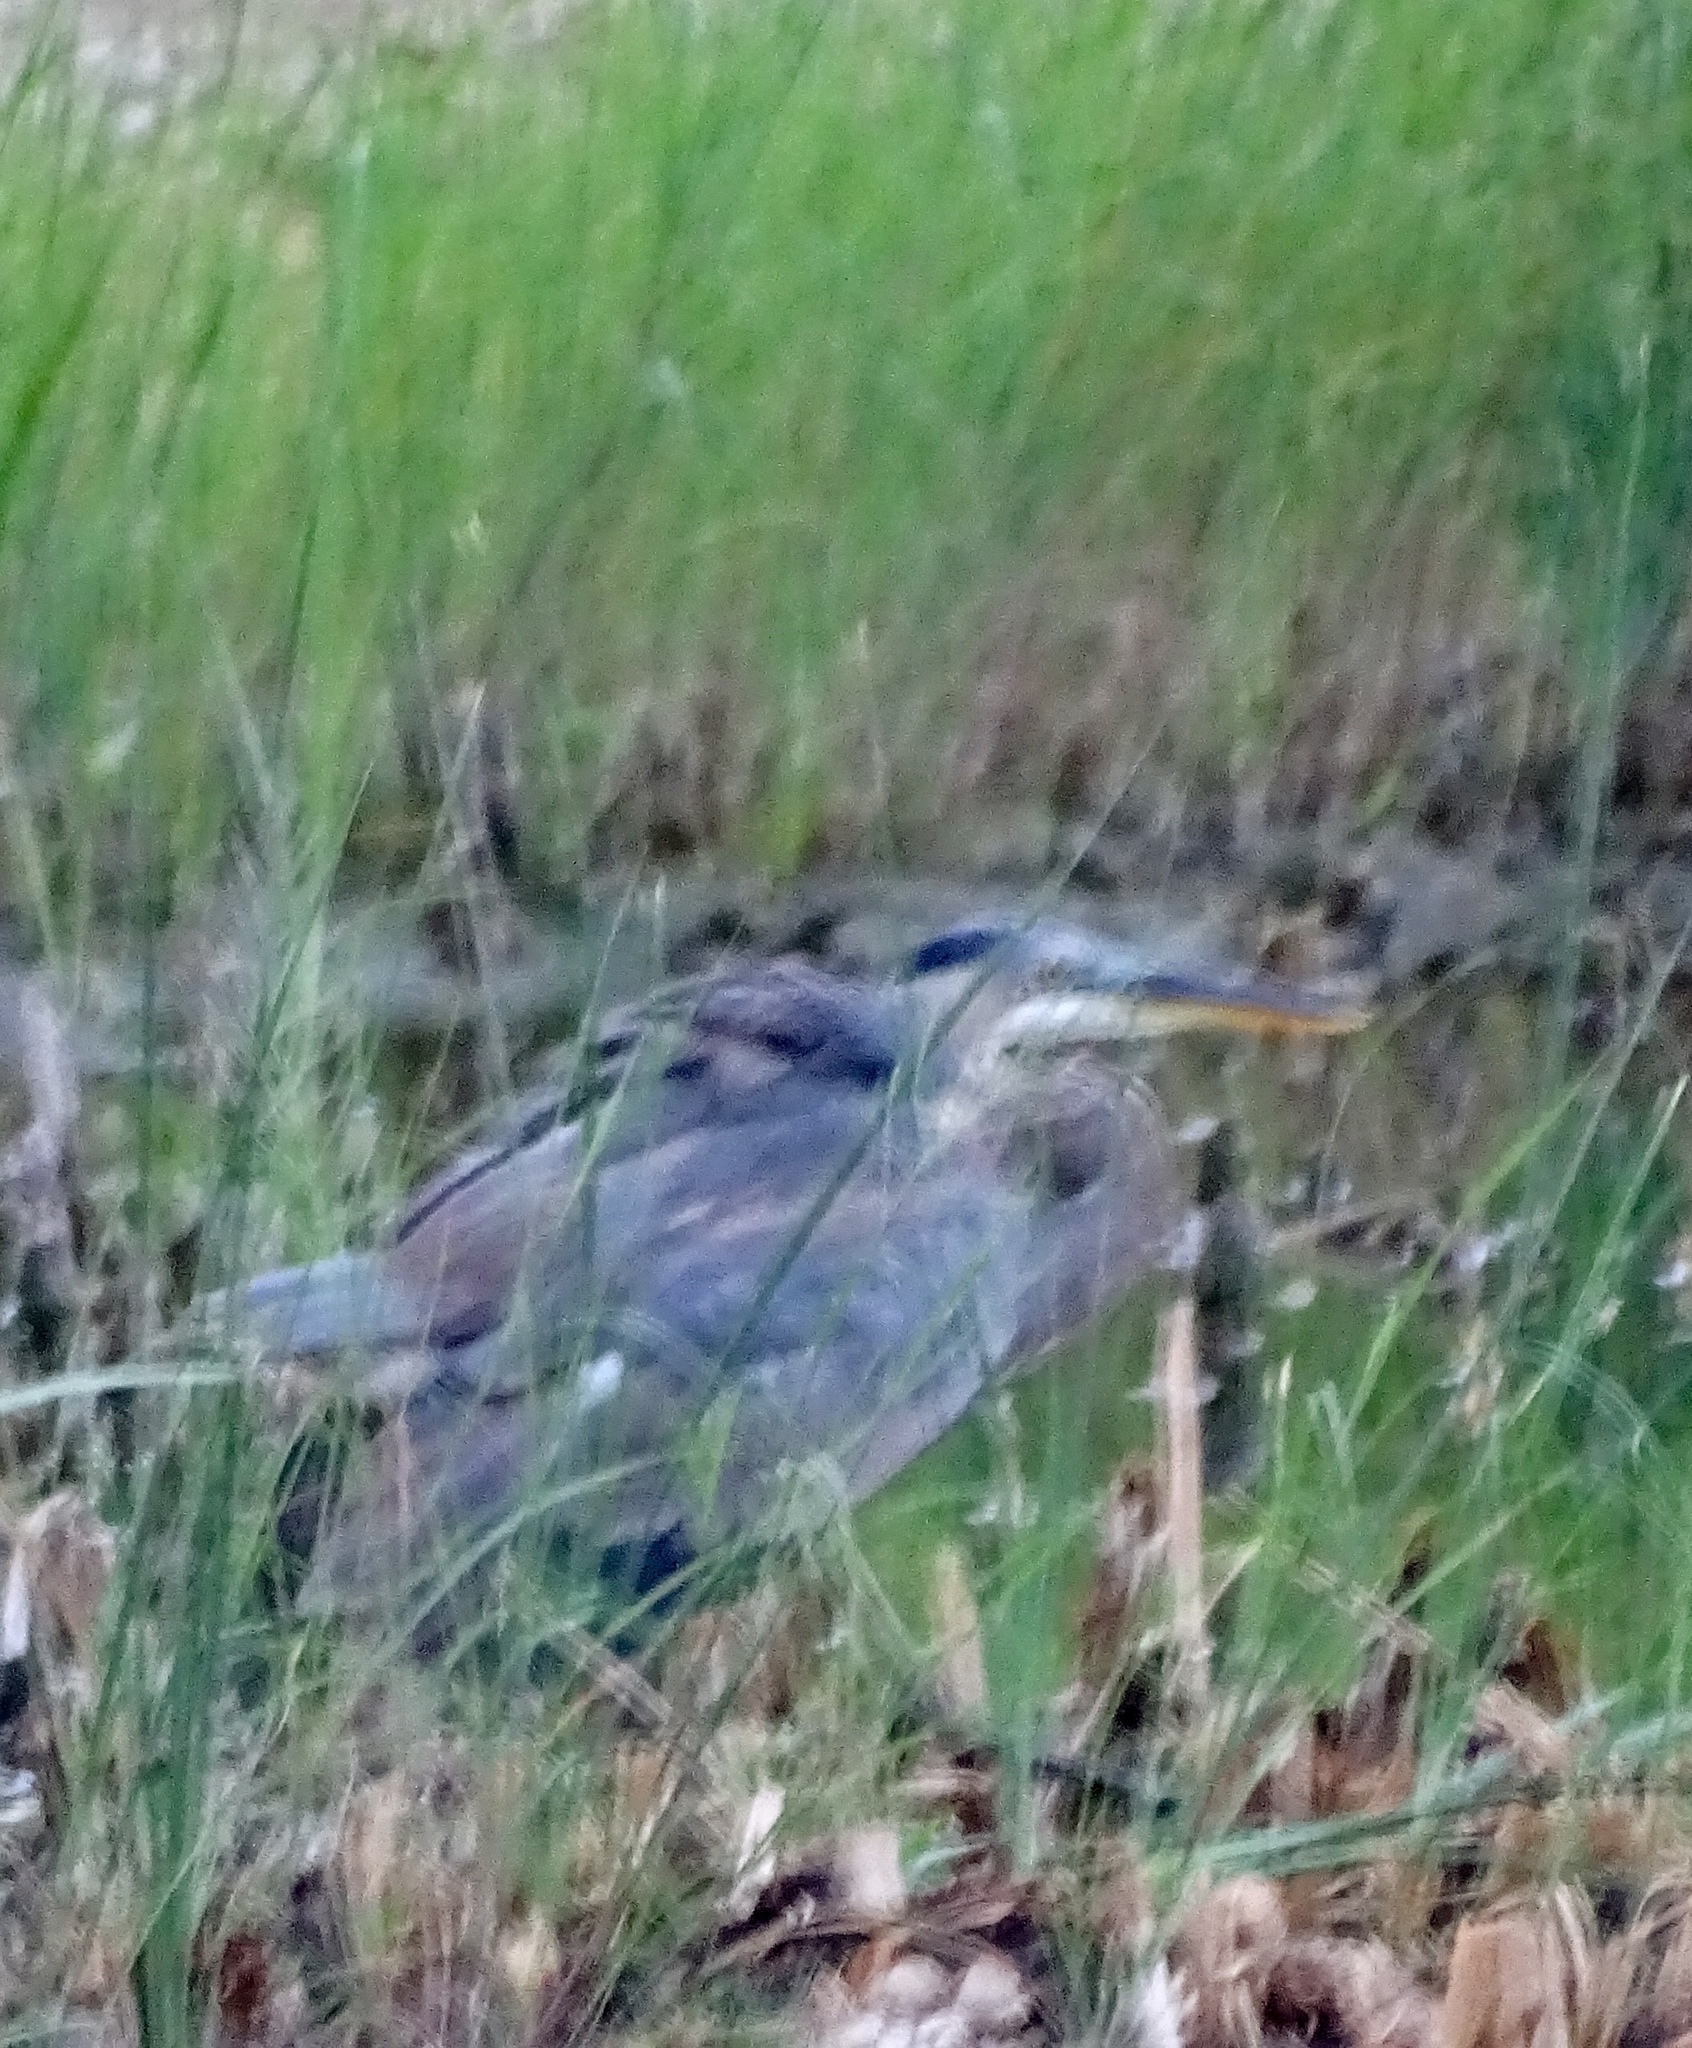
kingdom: Animalia
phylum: Chordata
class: Aves
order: Pelecaniformes
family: Ardeidae
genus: Ardea
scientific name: Ardea herodias
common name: Great blue heron
